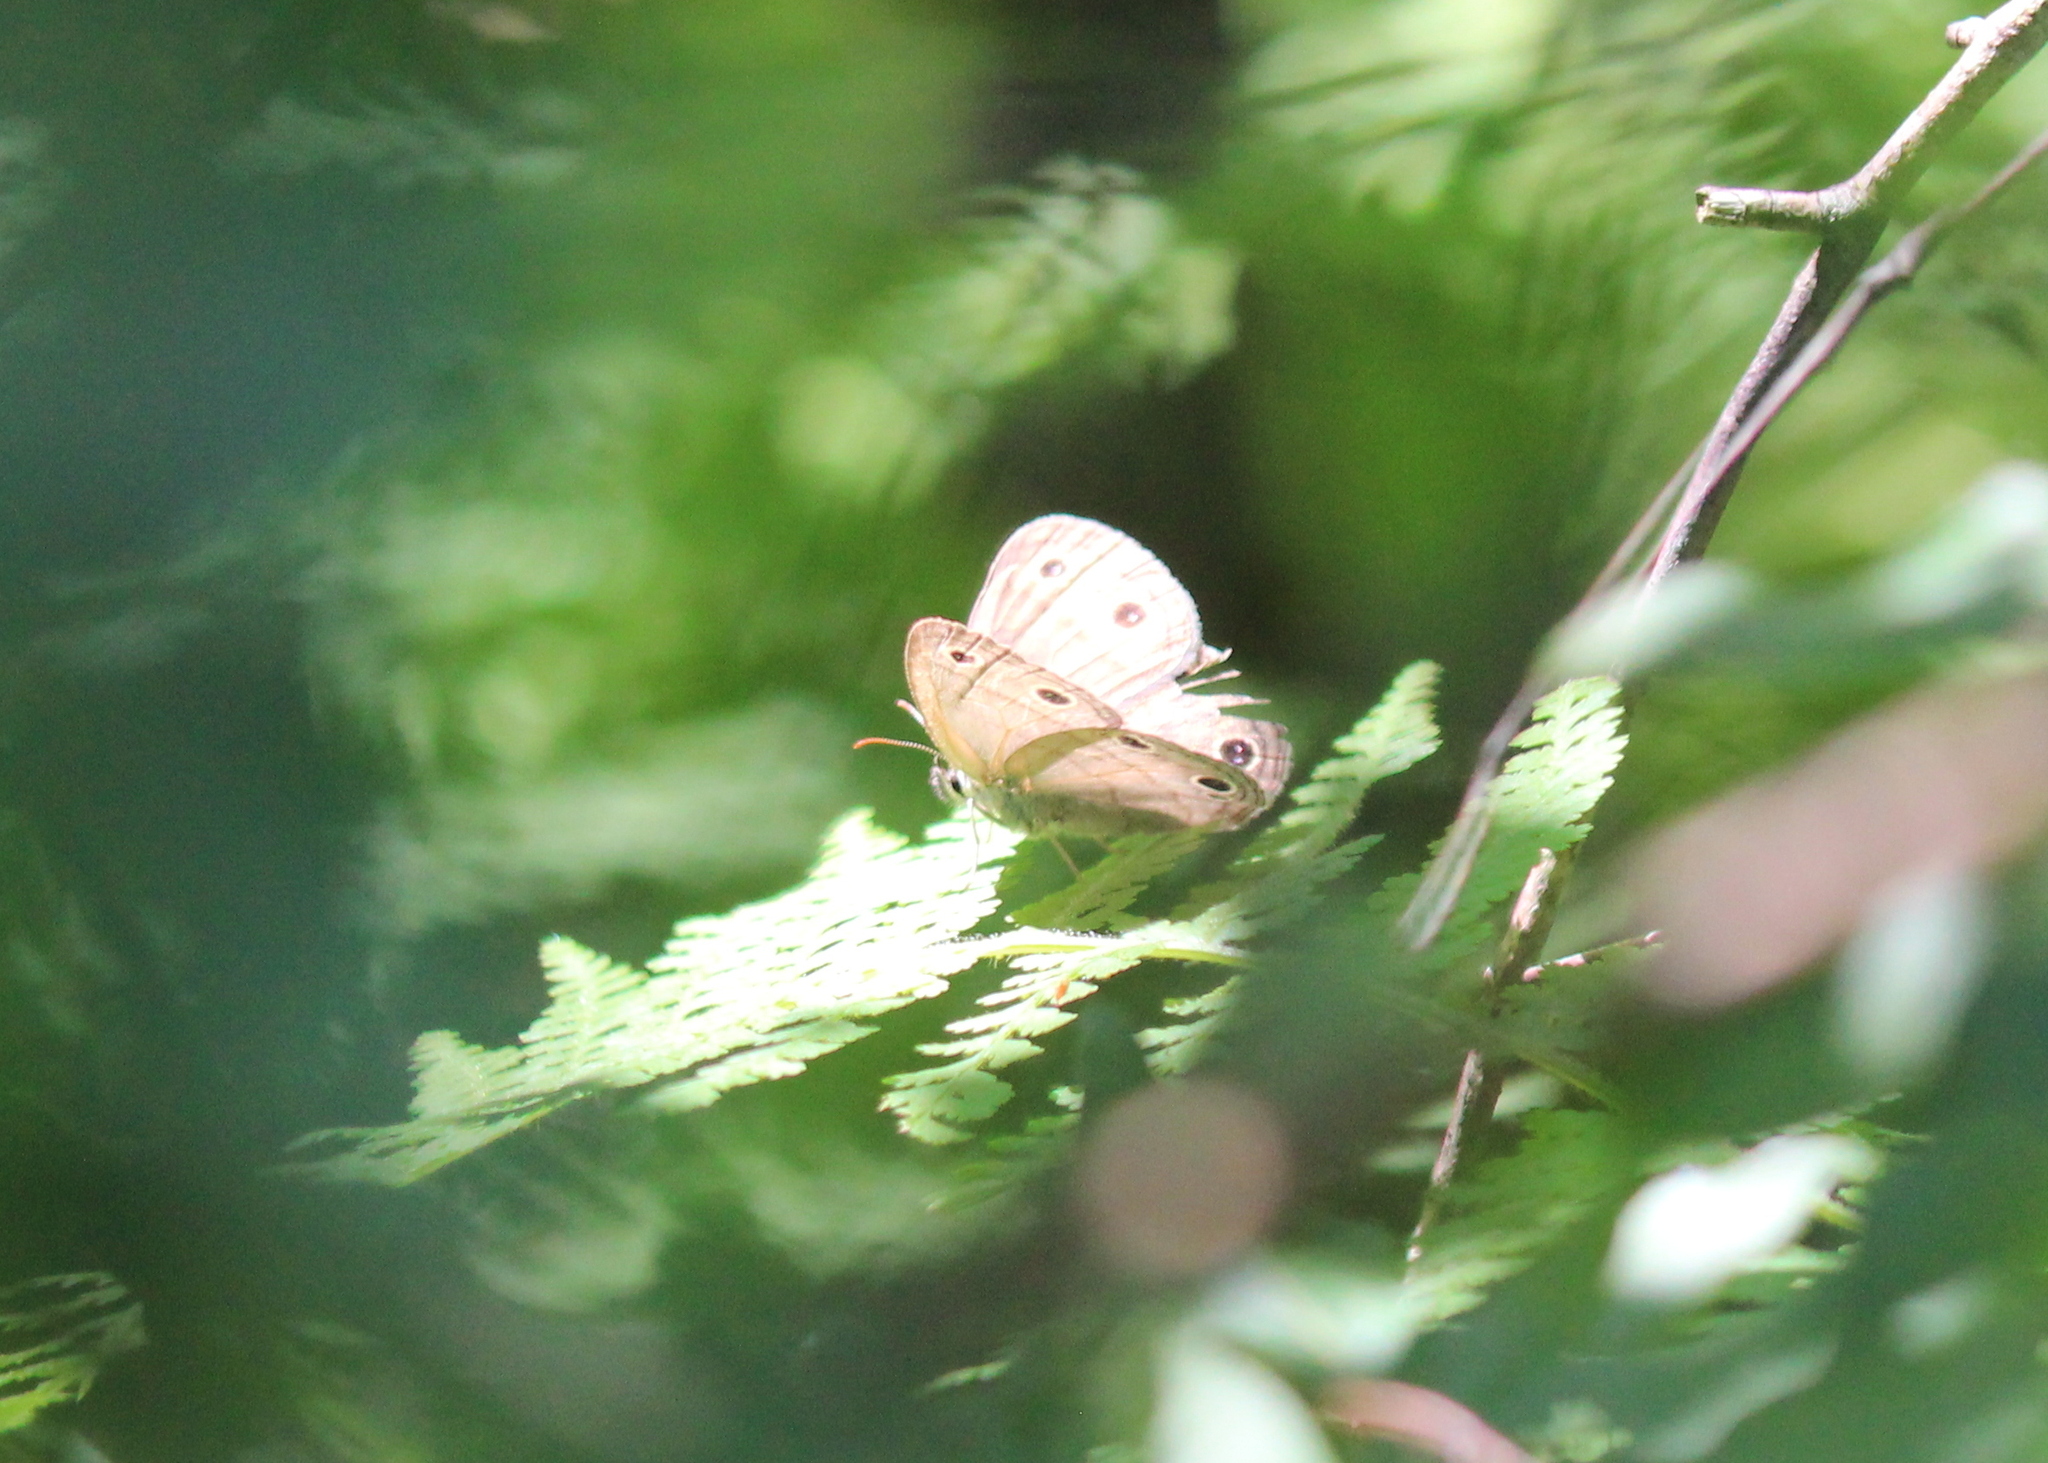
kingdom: Animalia
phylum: Arthropoda
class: Insecta
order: Lepidoptera
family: Nymphalidae
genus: Euptychia
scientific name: Euptychia cymela
